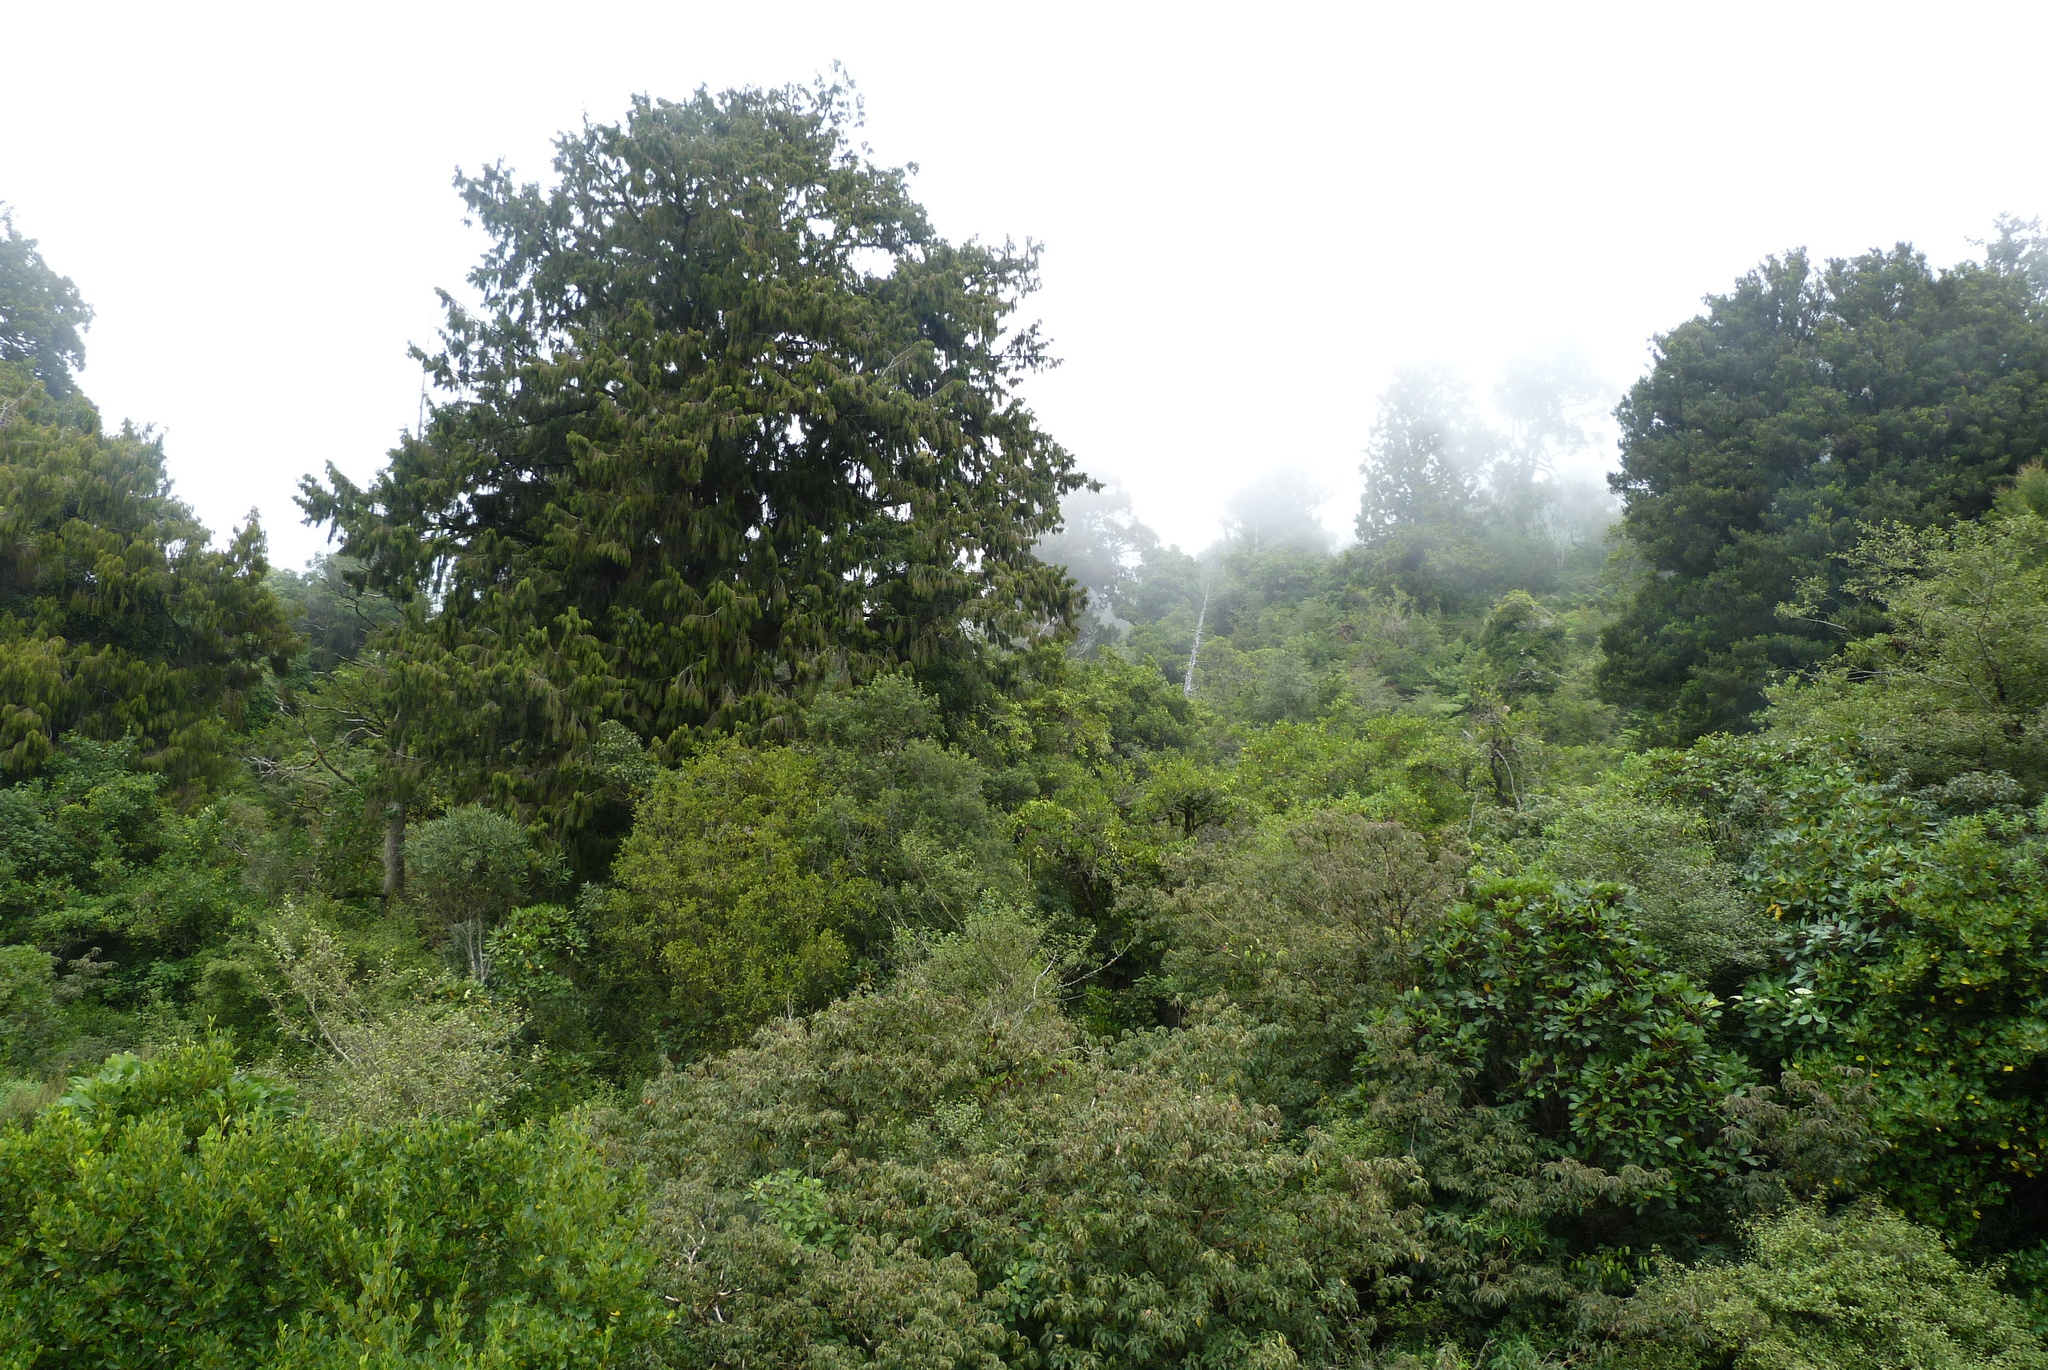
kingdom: Plantae
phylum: Tracheophyta
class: Pinopsida
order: Pinales
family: Podocarpaceae
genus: Dacrydium
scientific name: Dacrydium cupressinum
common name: Red pine
